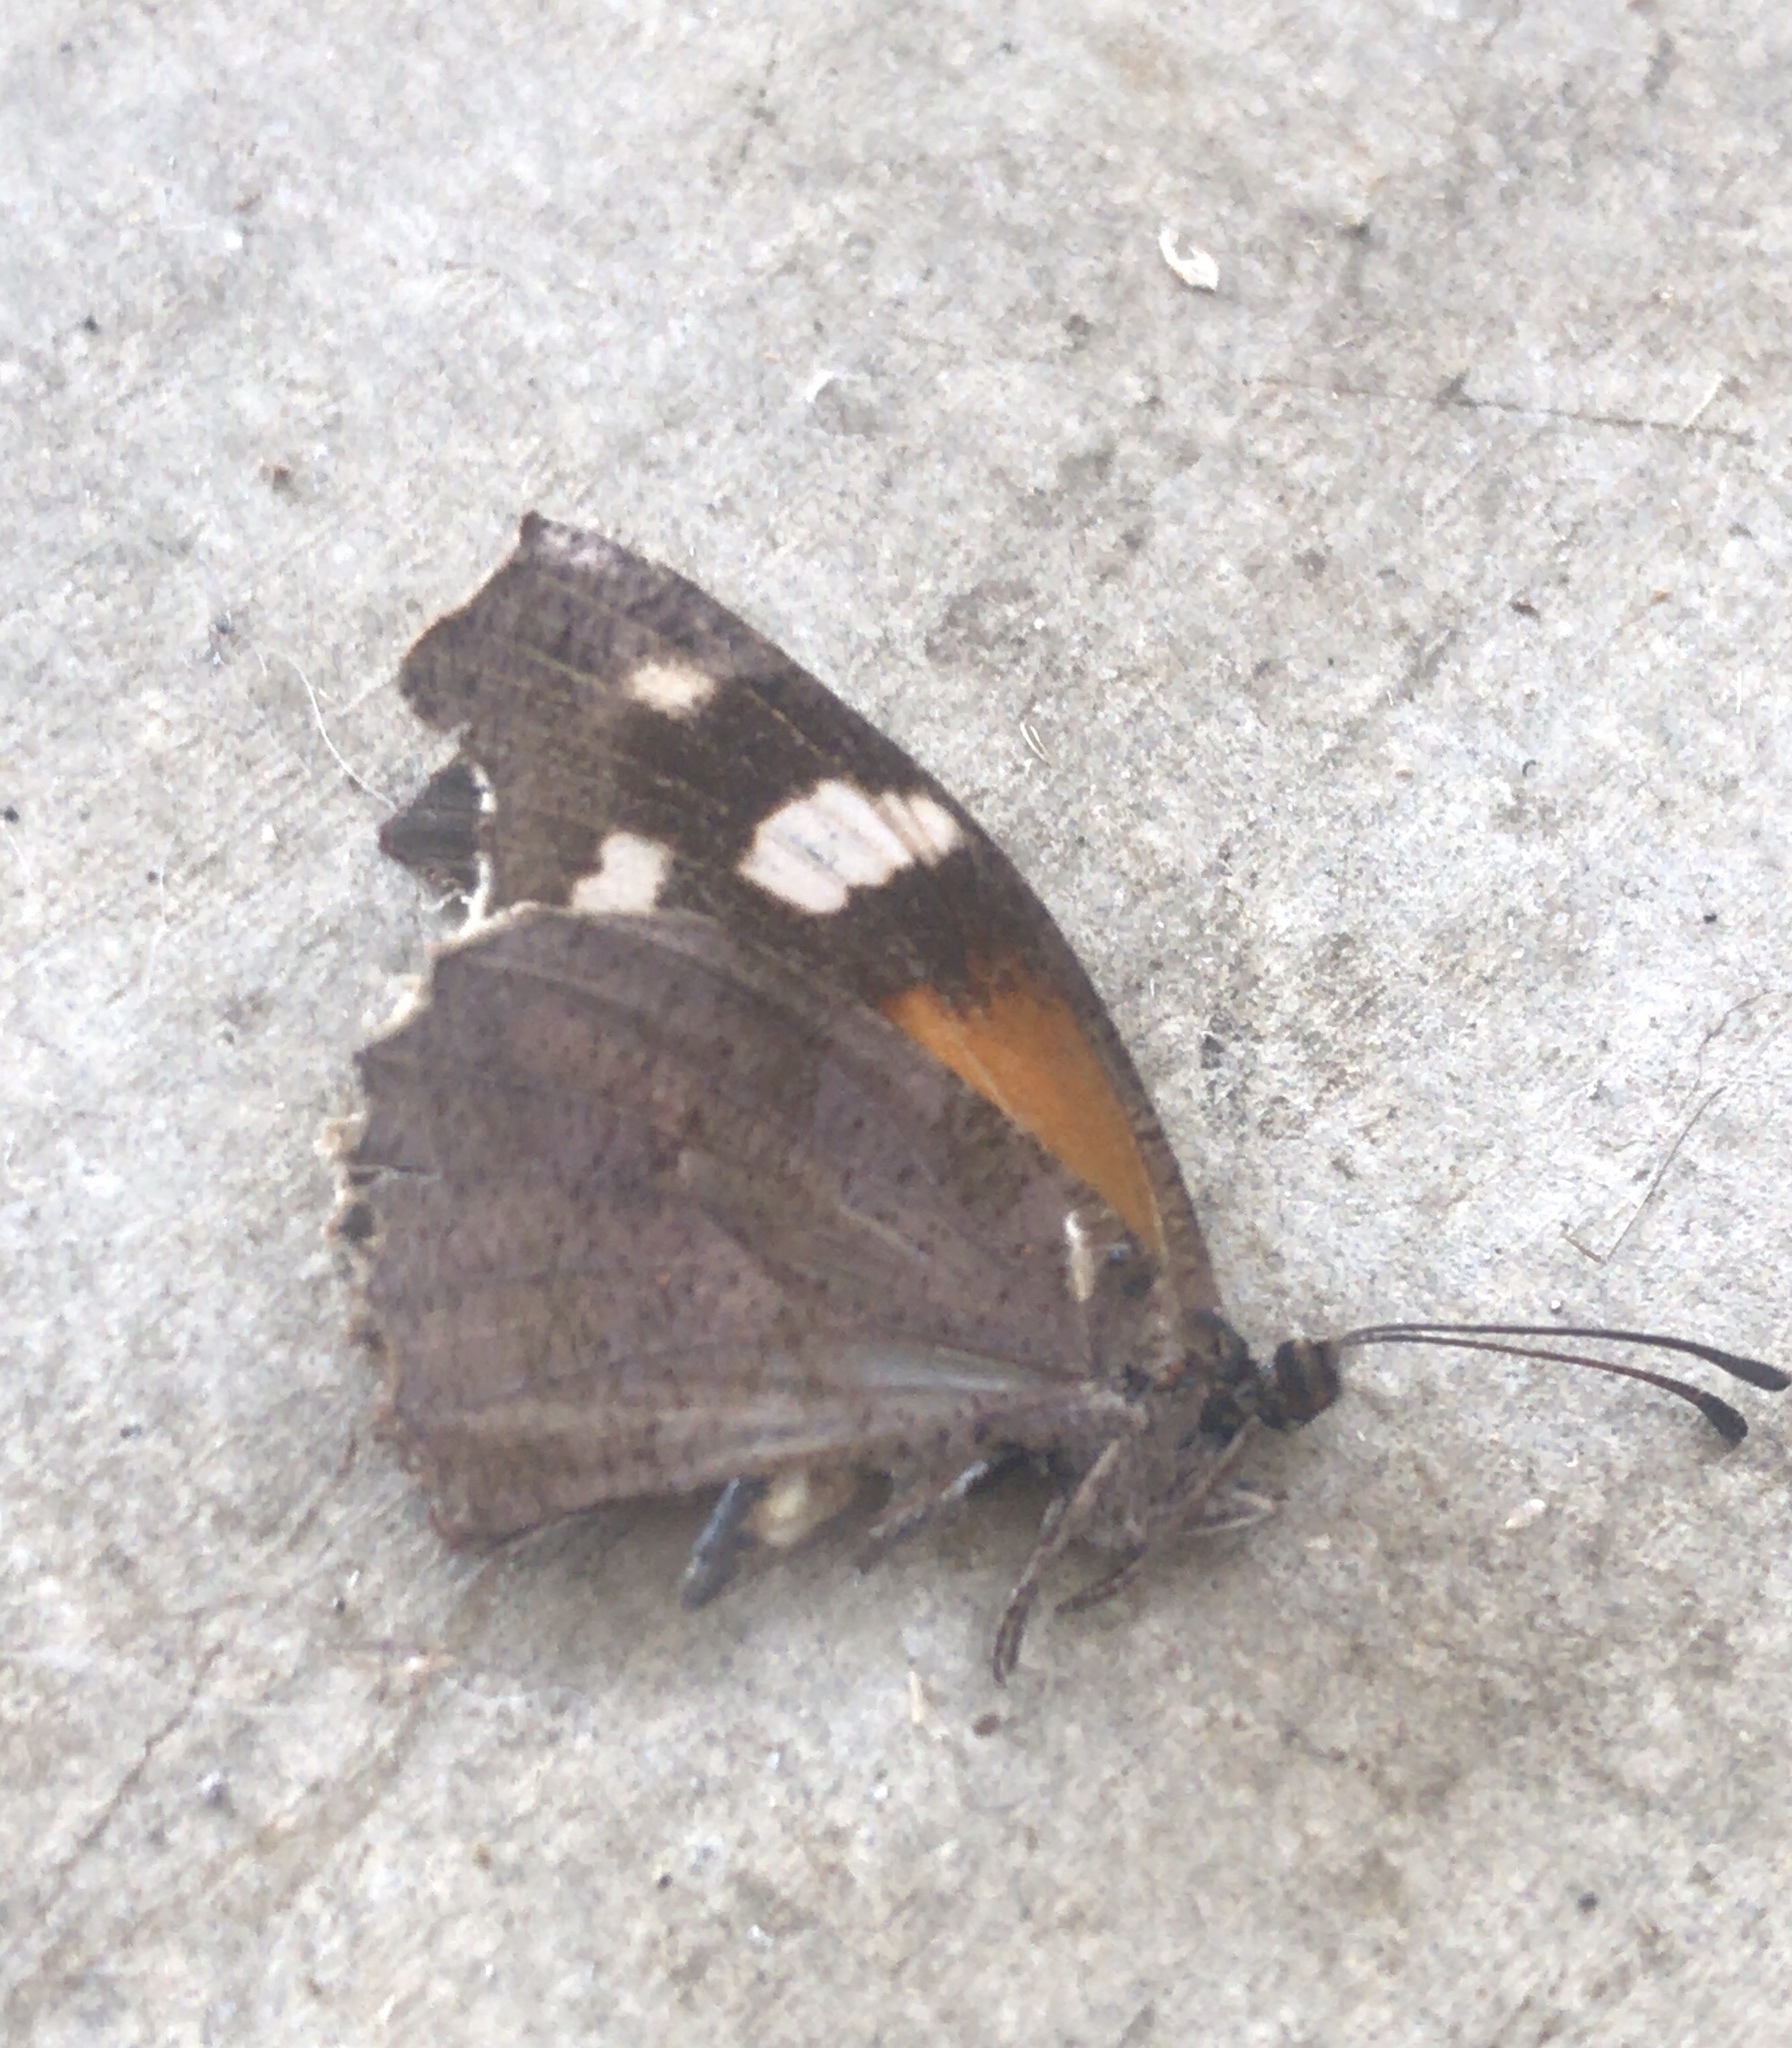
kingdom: Animalia
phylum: Arthropoda
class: Insecta
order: Lepidoptera
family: Nymphalidae
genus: Libytheana
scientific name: Libytheana carinenta
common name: American snout
